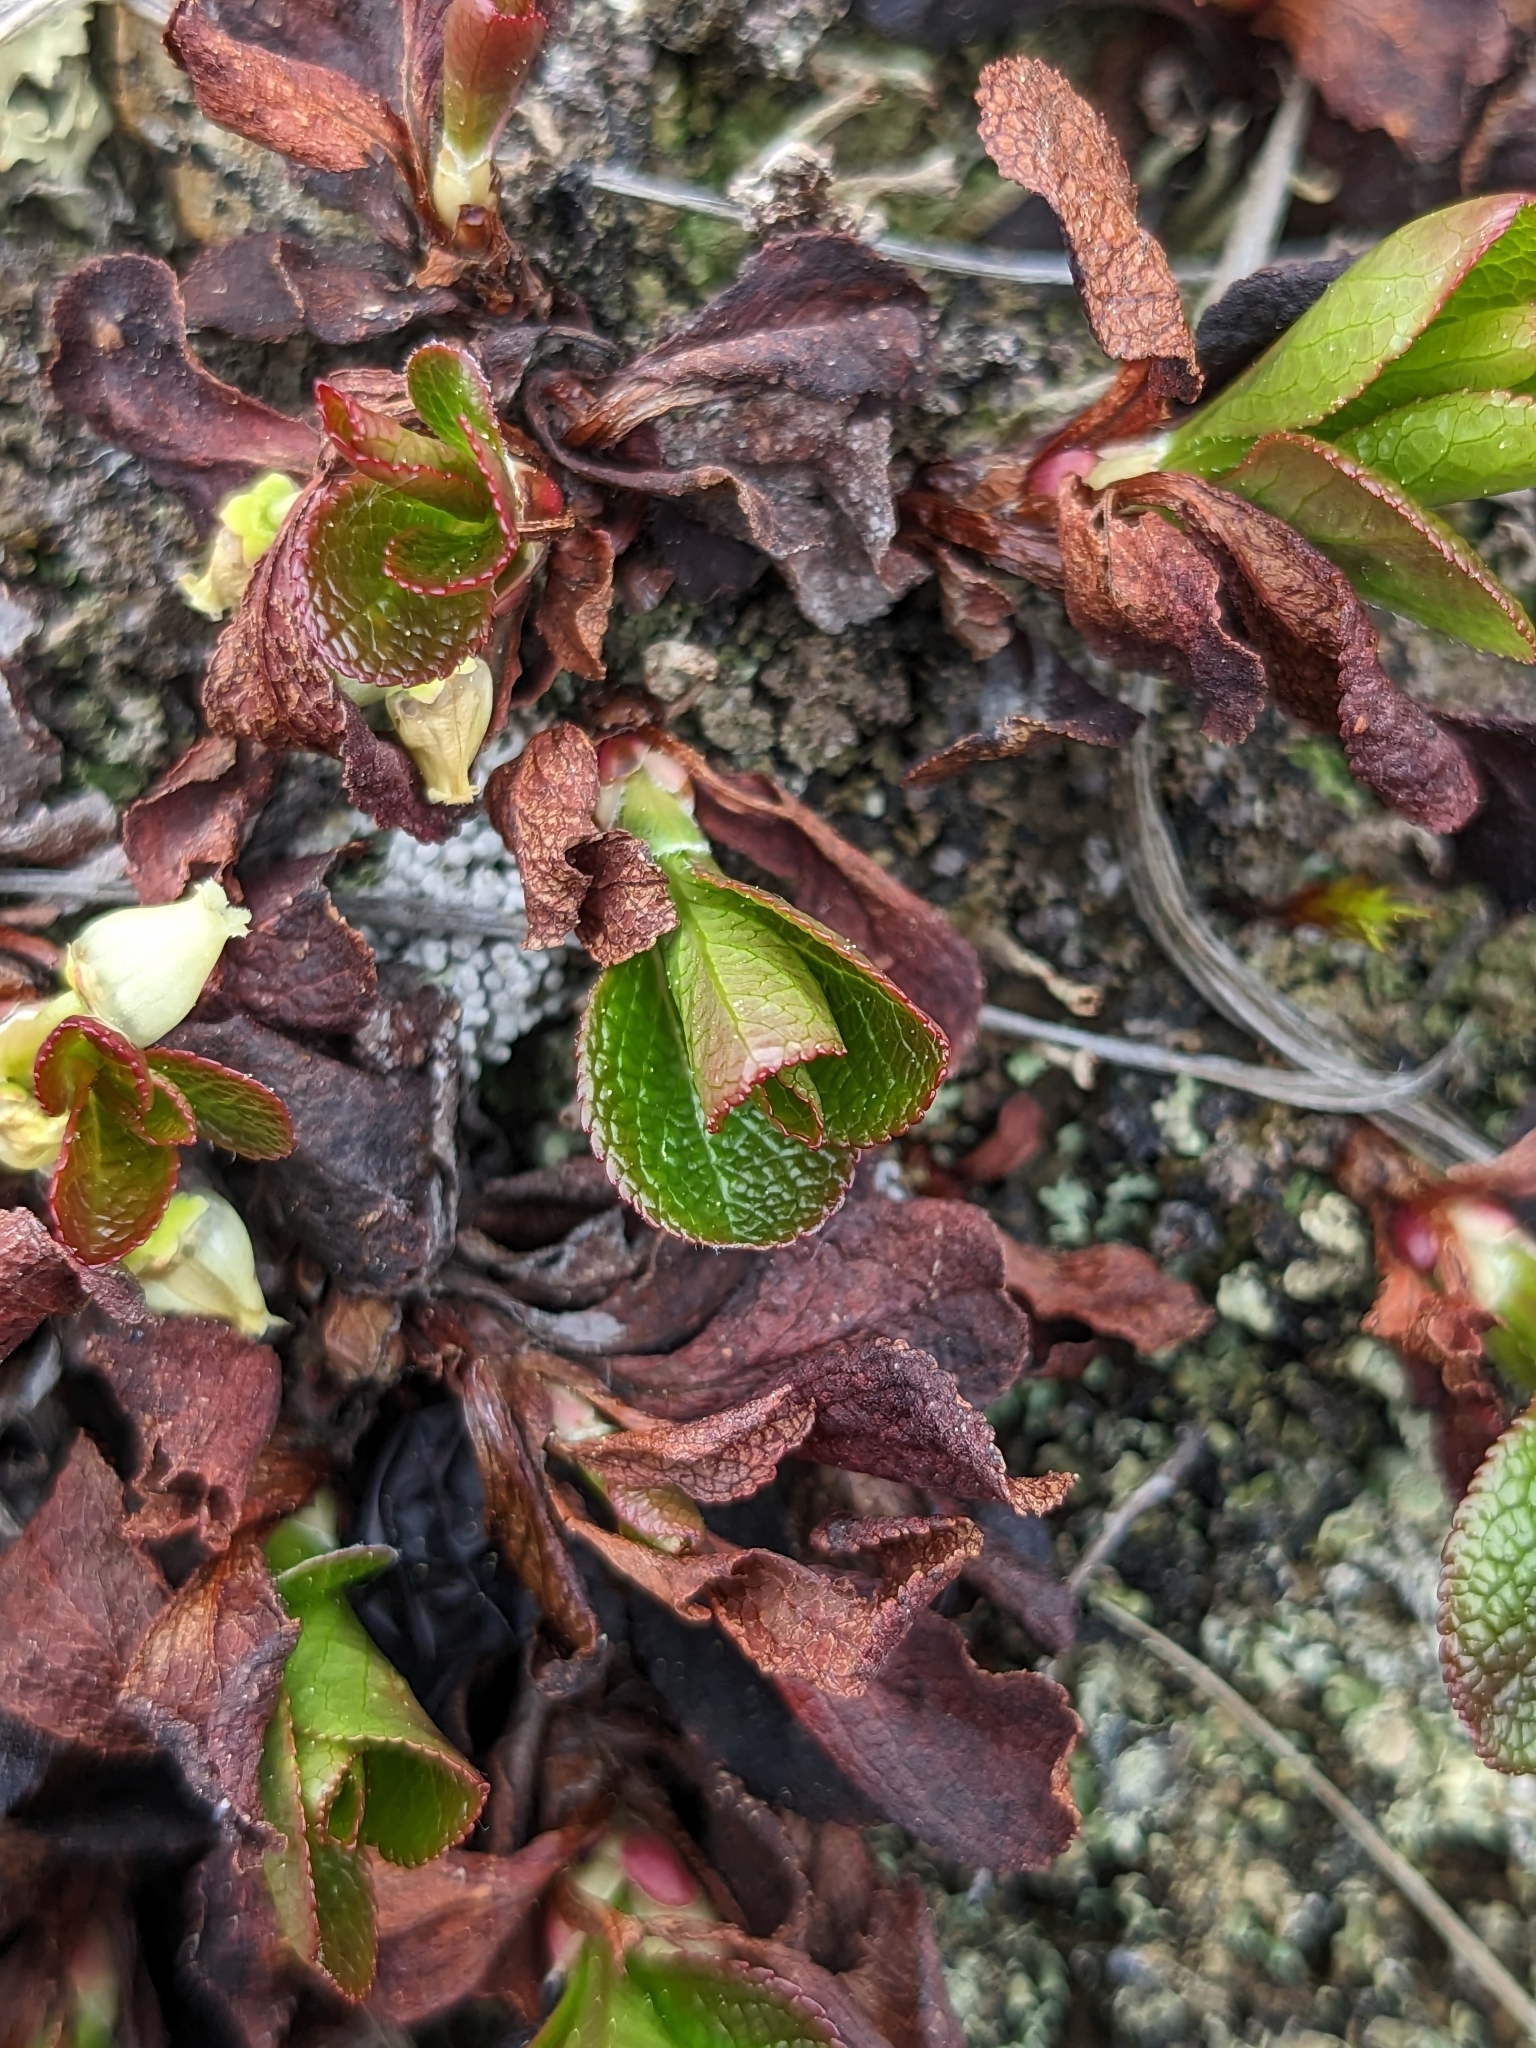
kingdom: Plantae
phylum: Tracheophyta
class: Magnoliopsida
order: Ericales
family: Ericaceae
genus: Arctostaphylos
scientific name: Arctostaphylos alpinus
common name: Alpine bearberry
